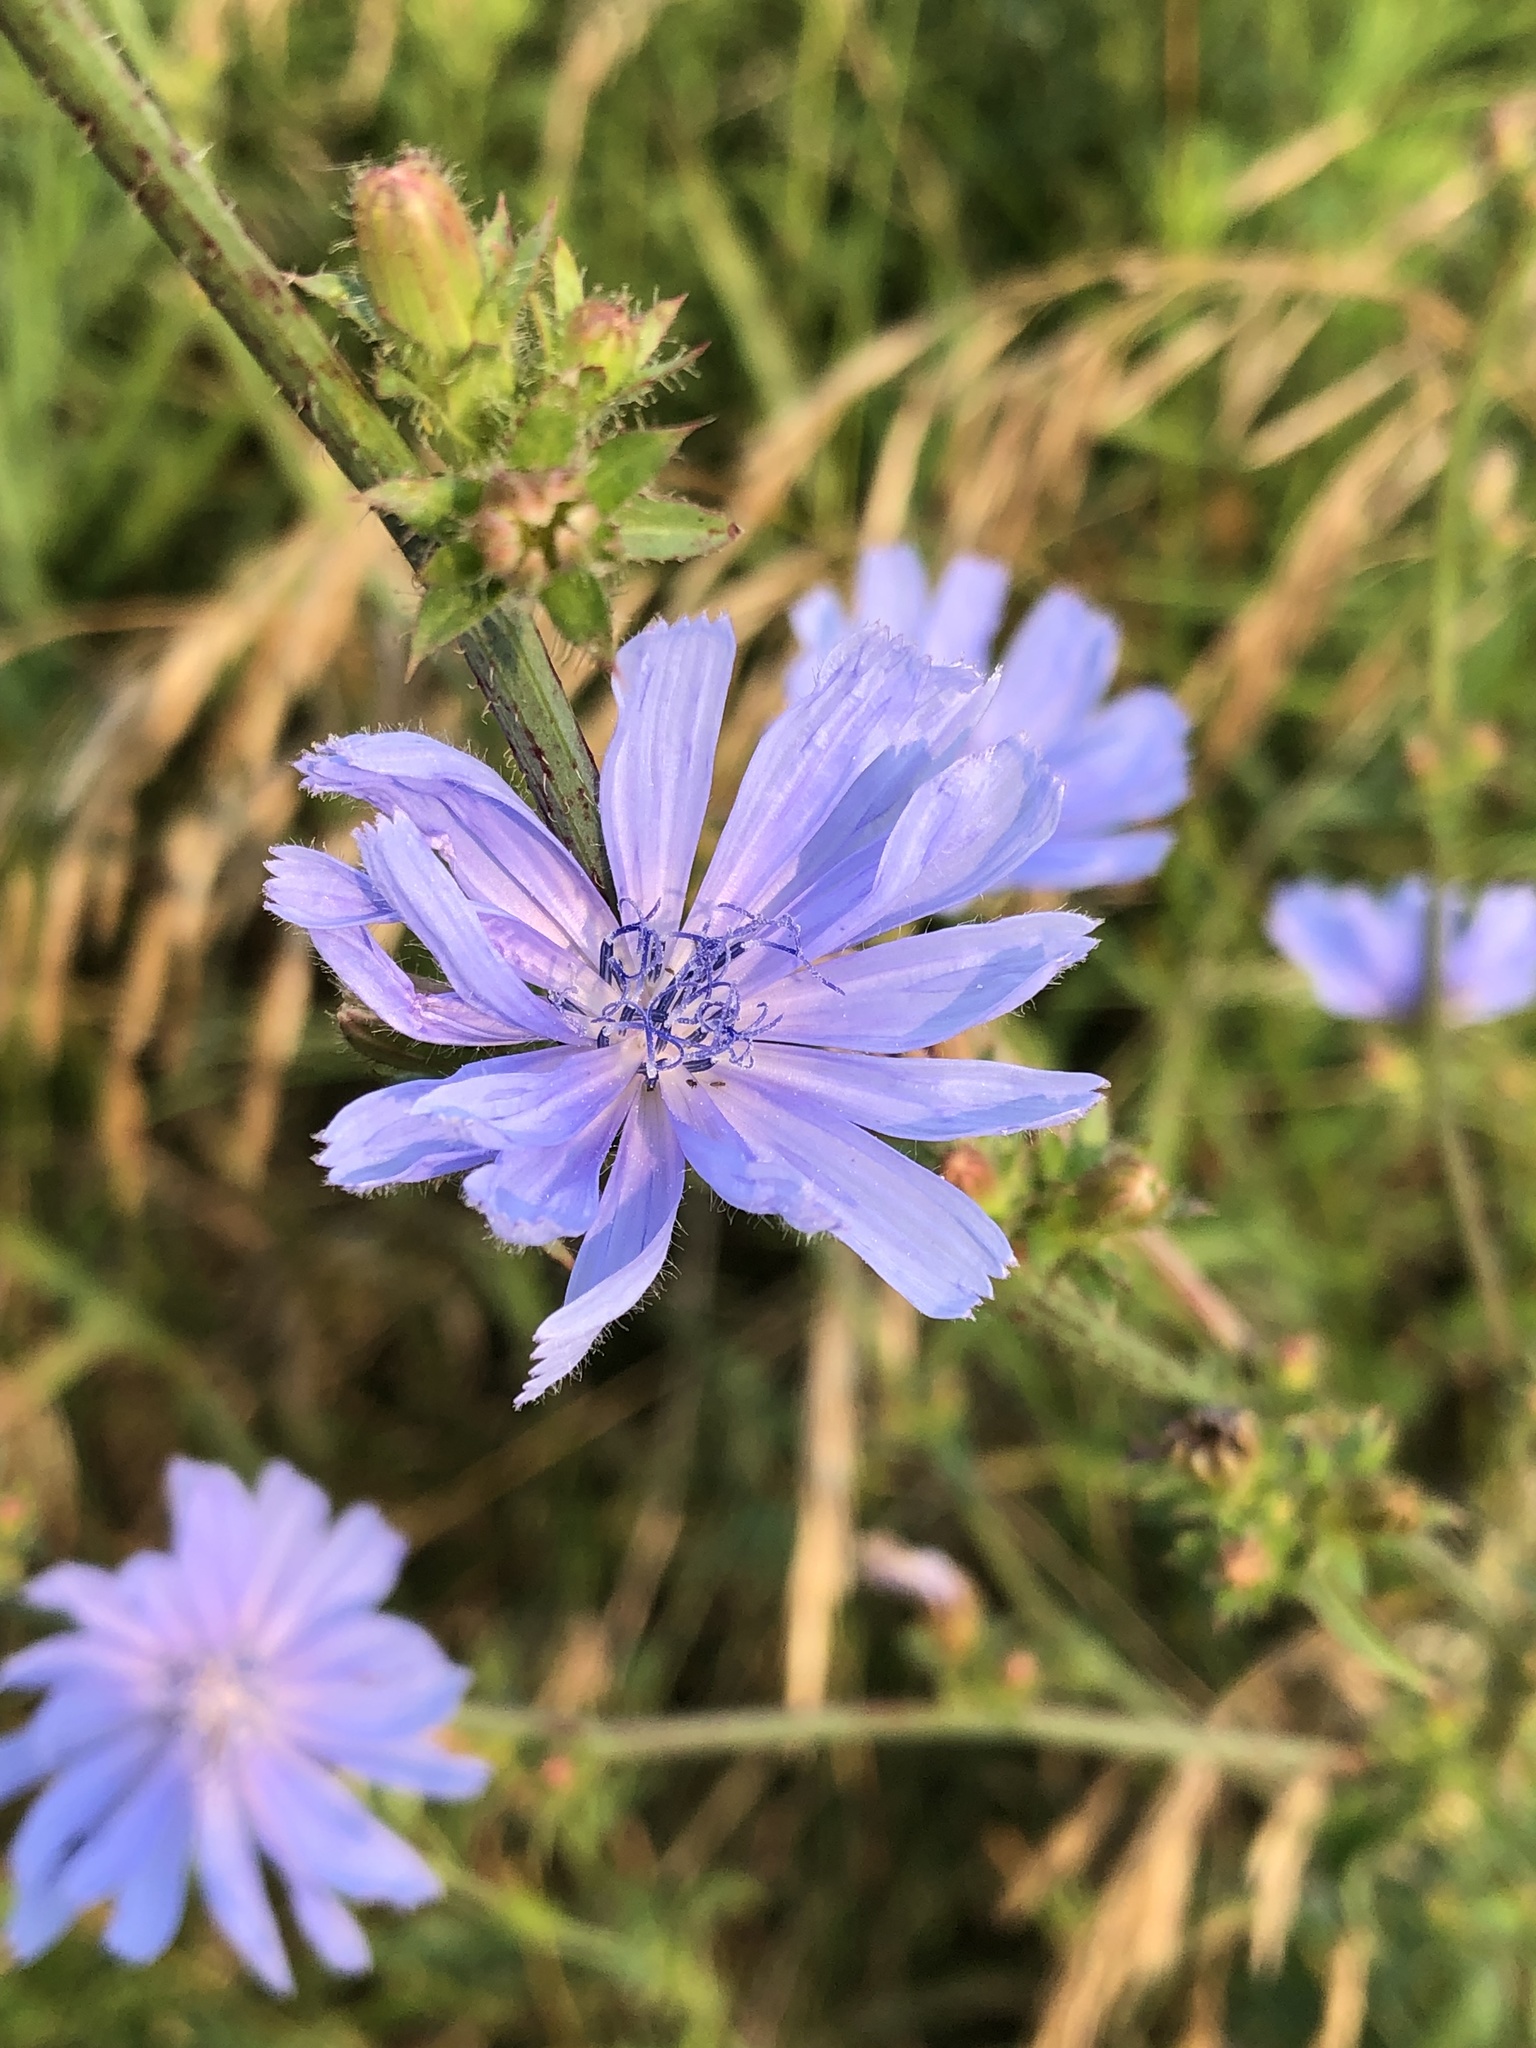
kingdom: Plantae
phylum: Tracheophyta
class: Magnoliopsida
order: Asterales
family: Asteraceae
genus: Cichorium
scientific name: Cichorium intybus
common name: Chicory
